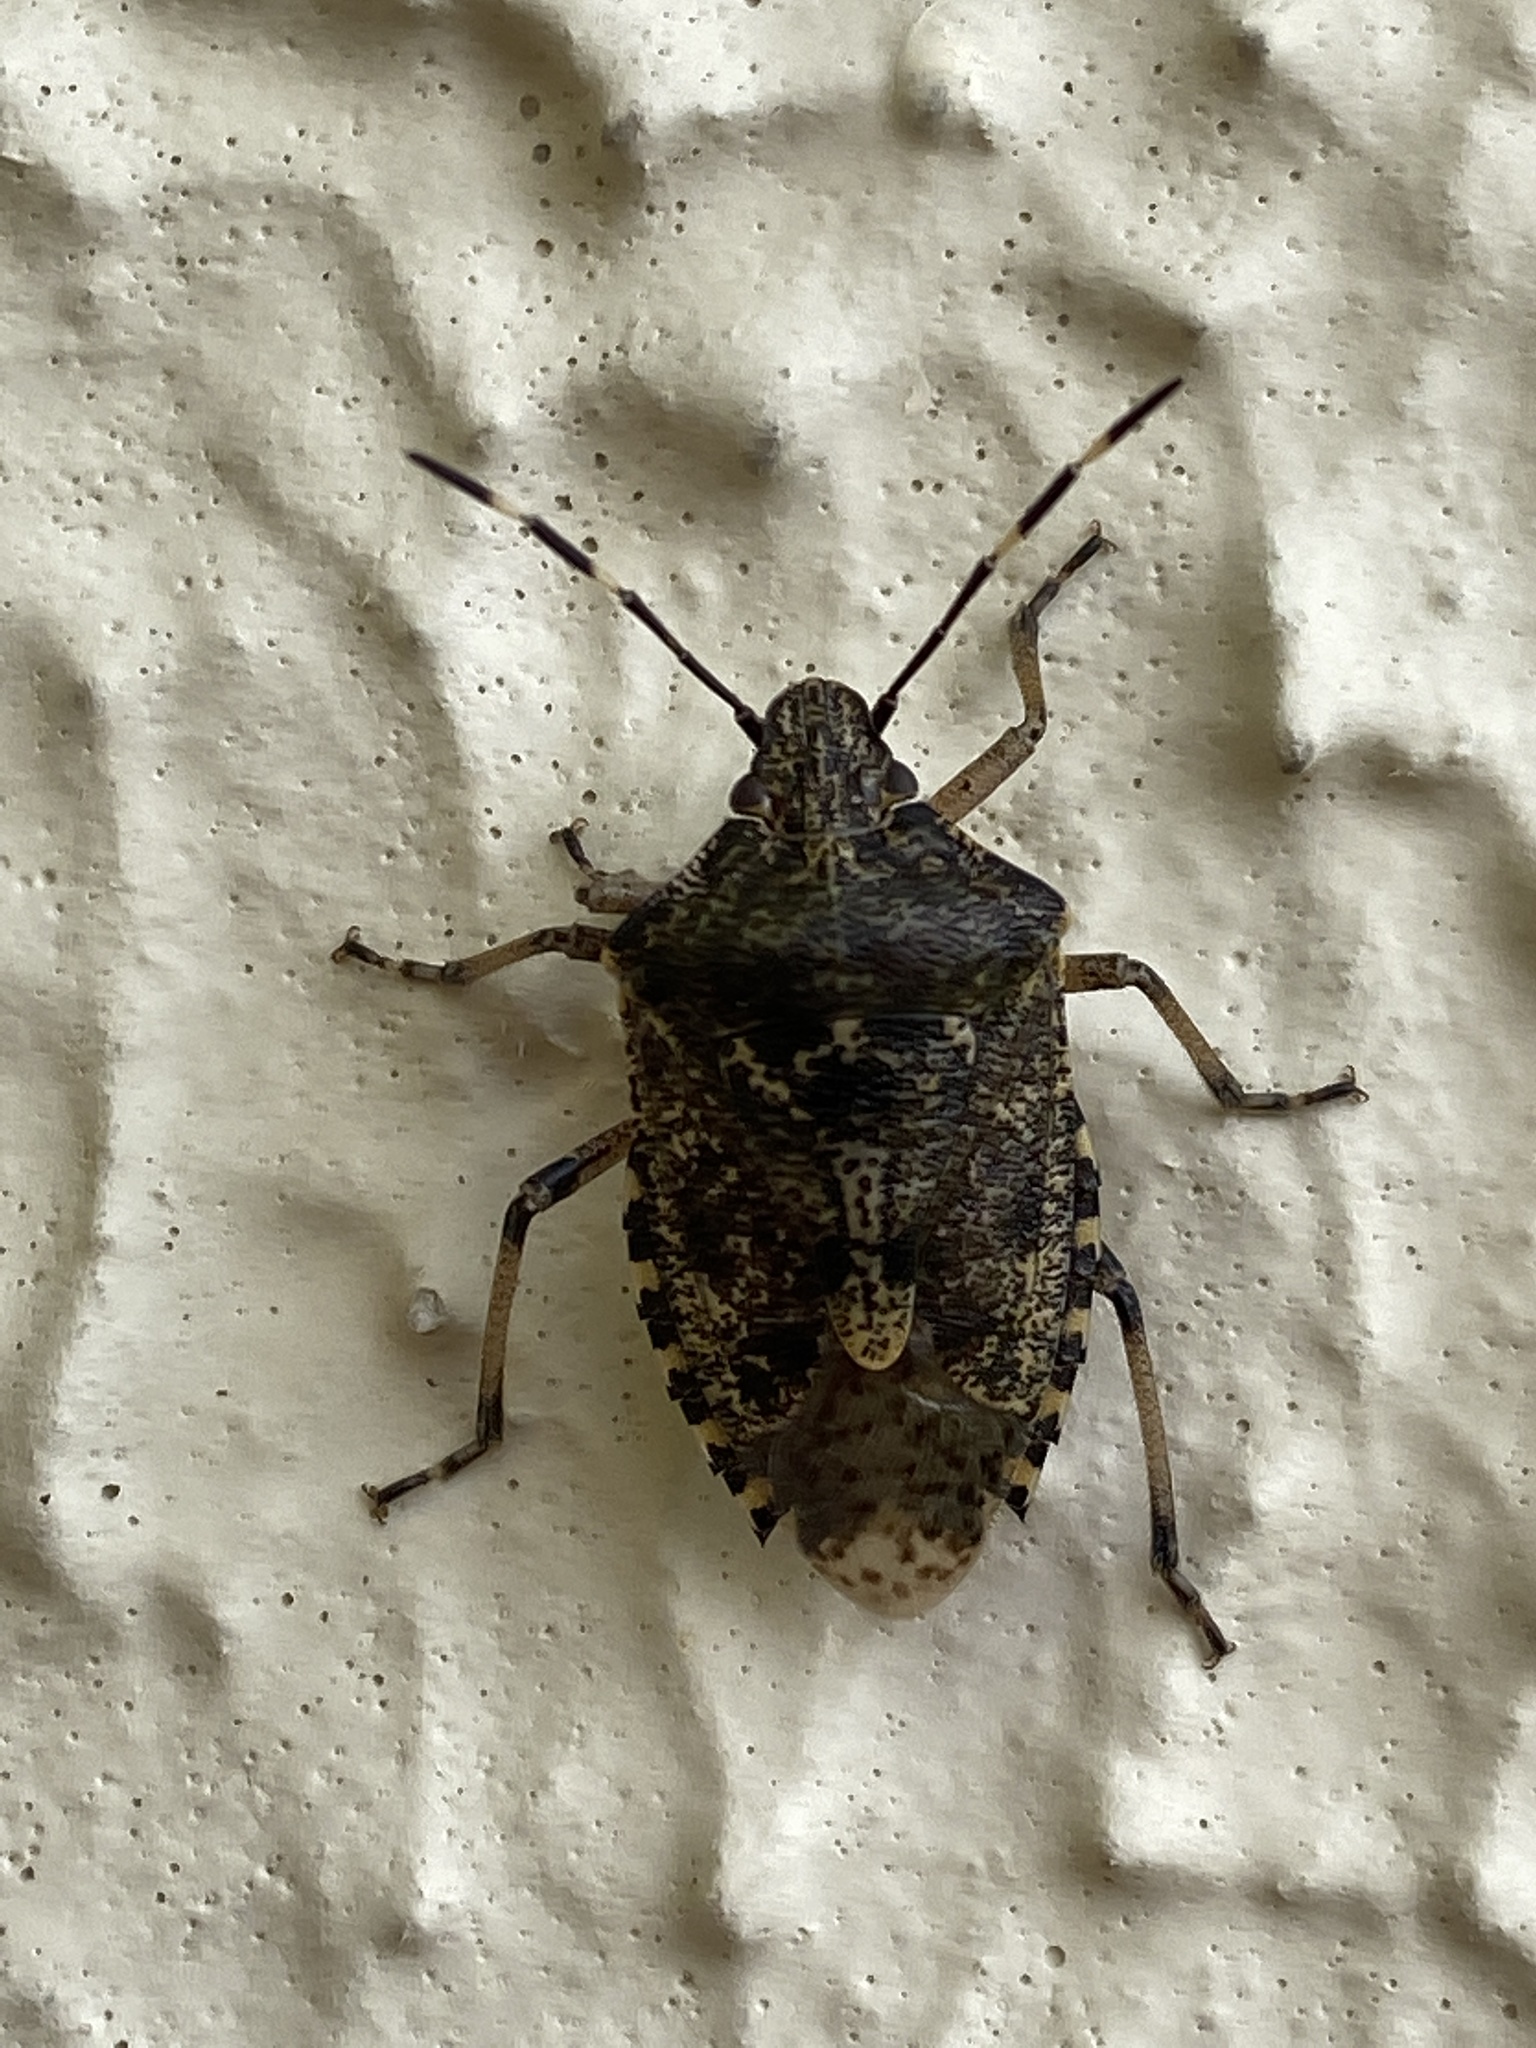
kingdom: Animalia
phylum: Arthropoda
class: Insecta
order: Hemiptera
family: Pentatomidae
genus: Rhaphigaster
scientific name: Rhaphigaster nebulosa
